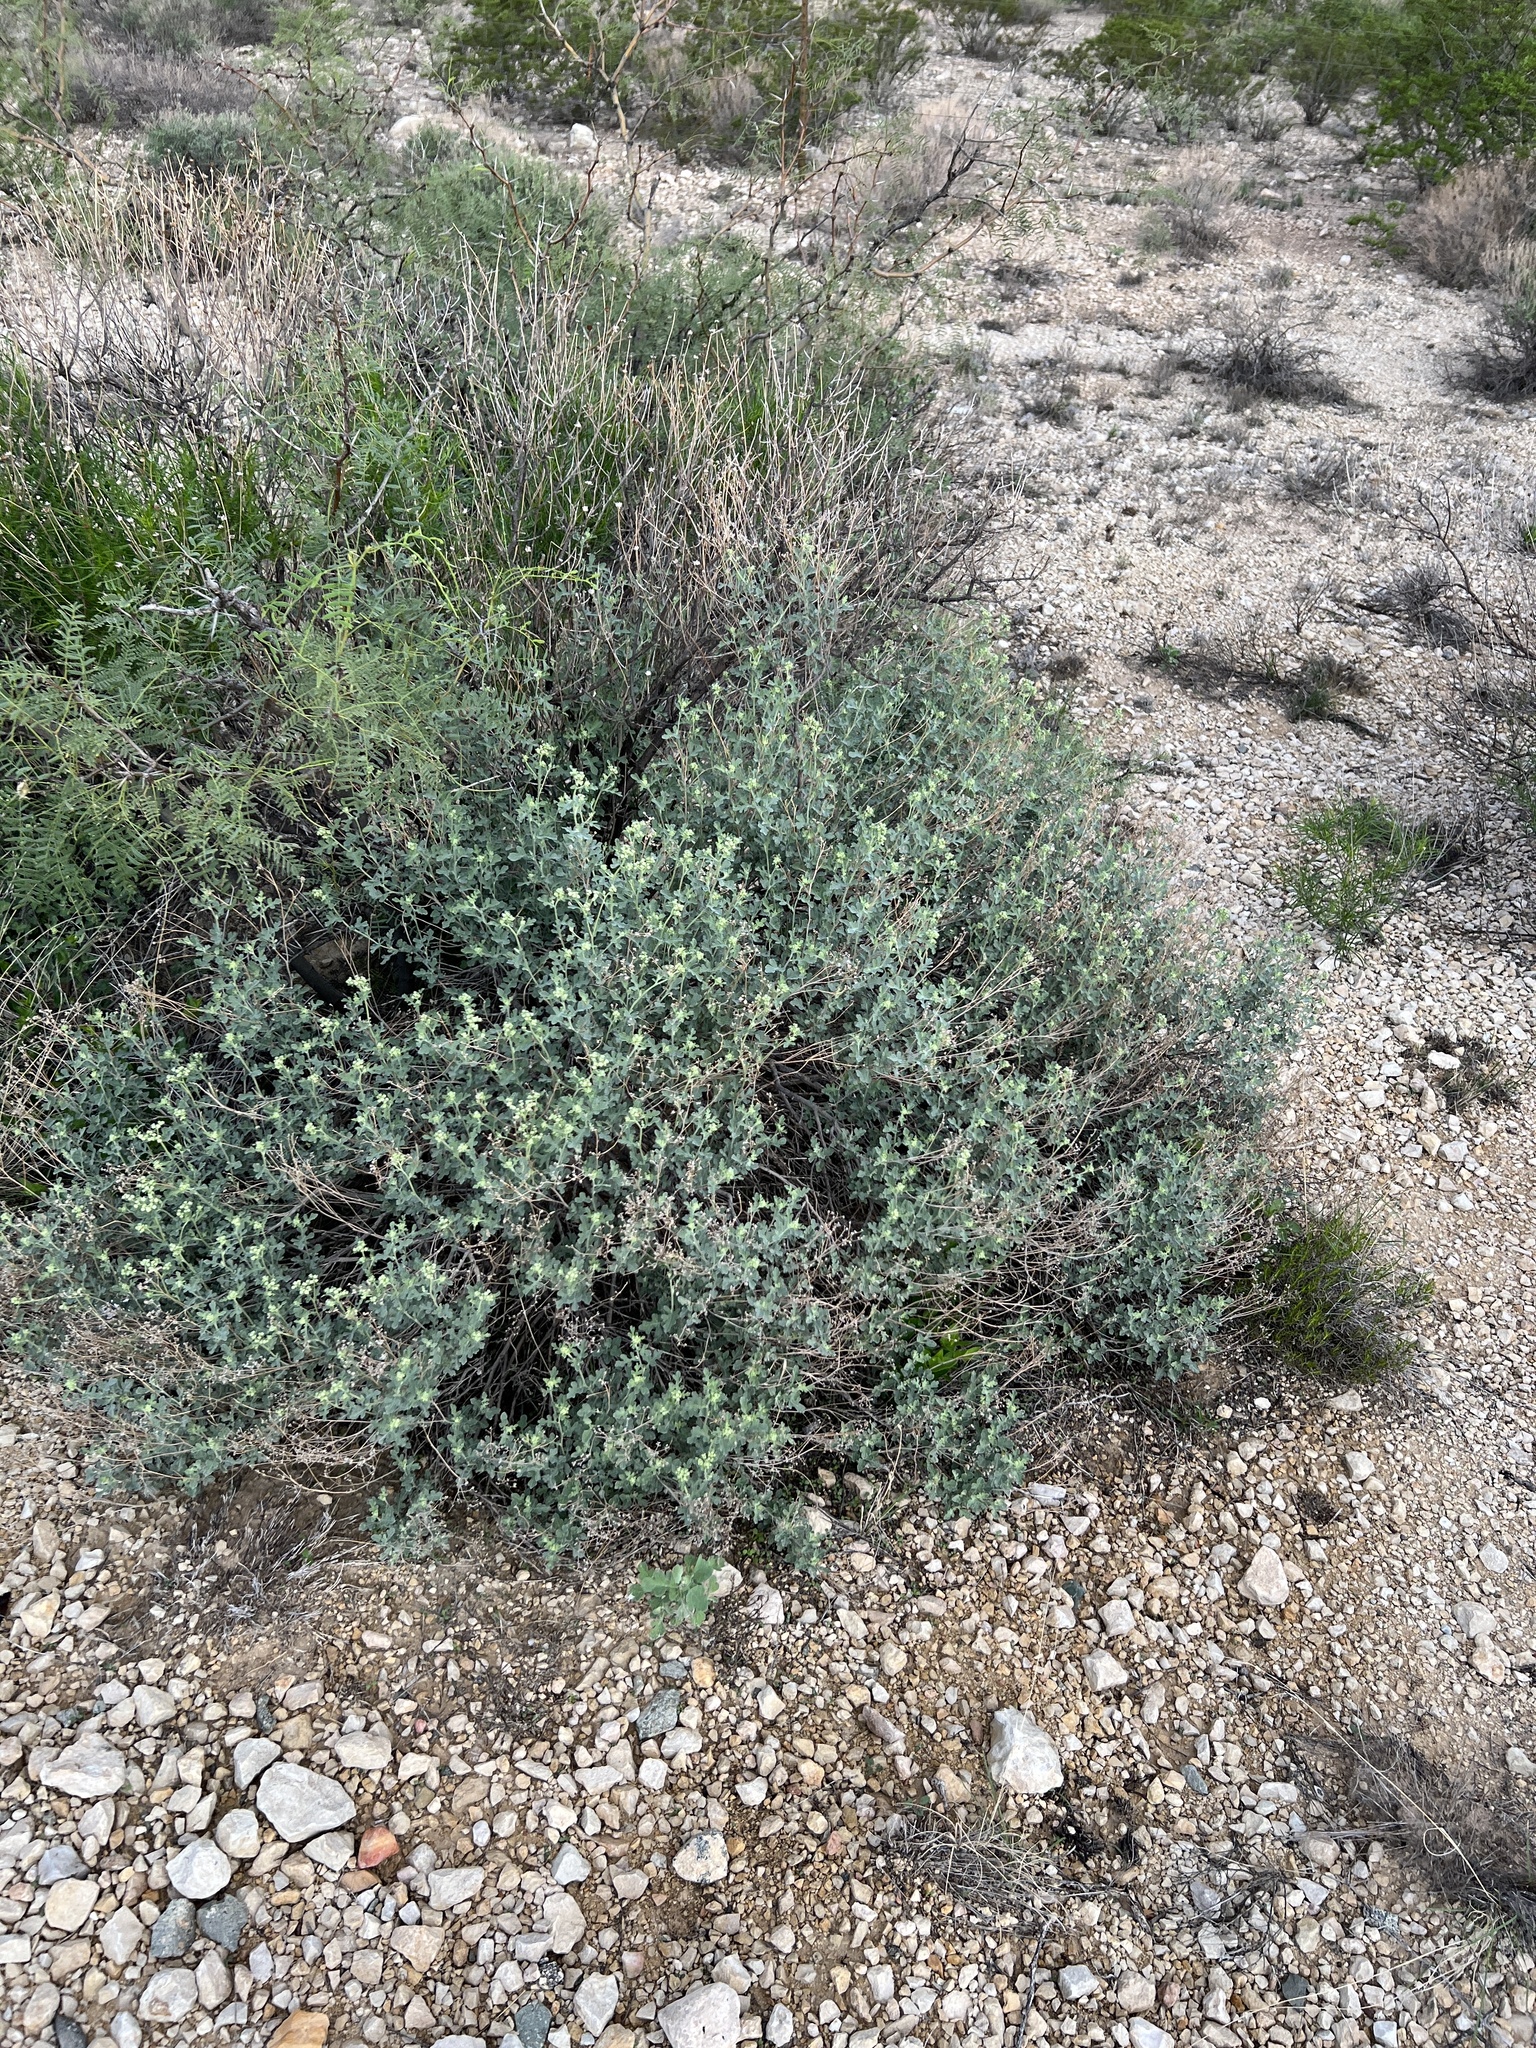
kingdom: Plantae
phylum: Tracheophyta
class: Magnoliopsida
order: Asterales
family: Asteraceae
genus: Parthenium
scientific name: Parthenium incanum
